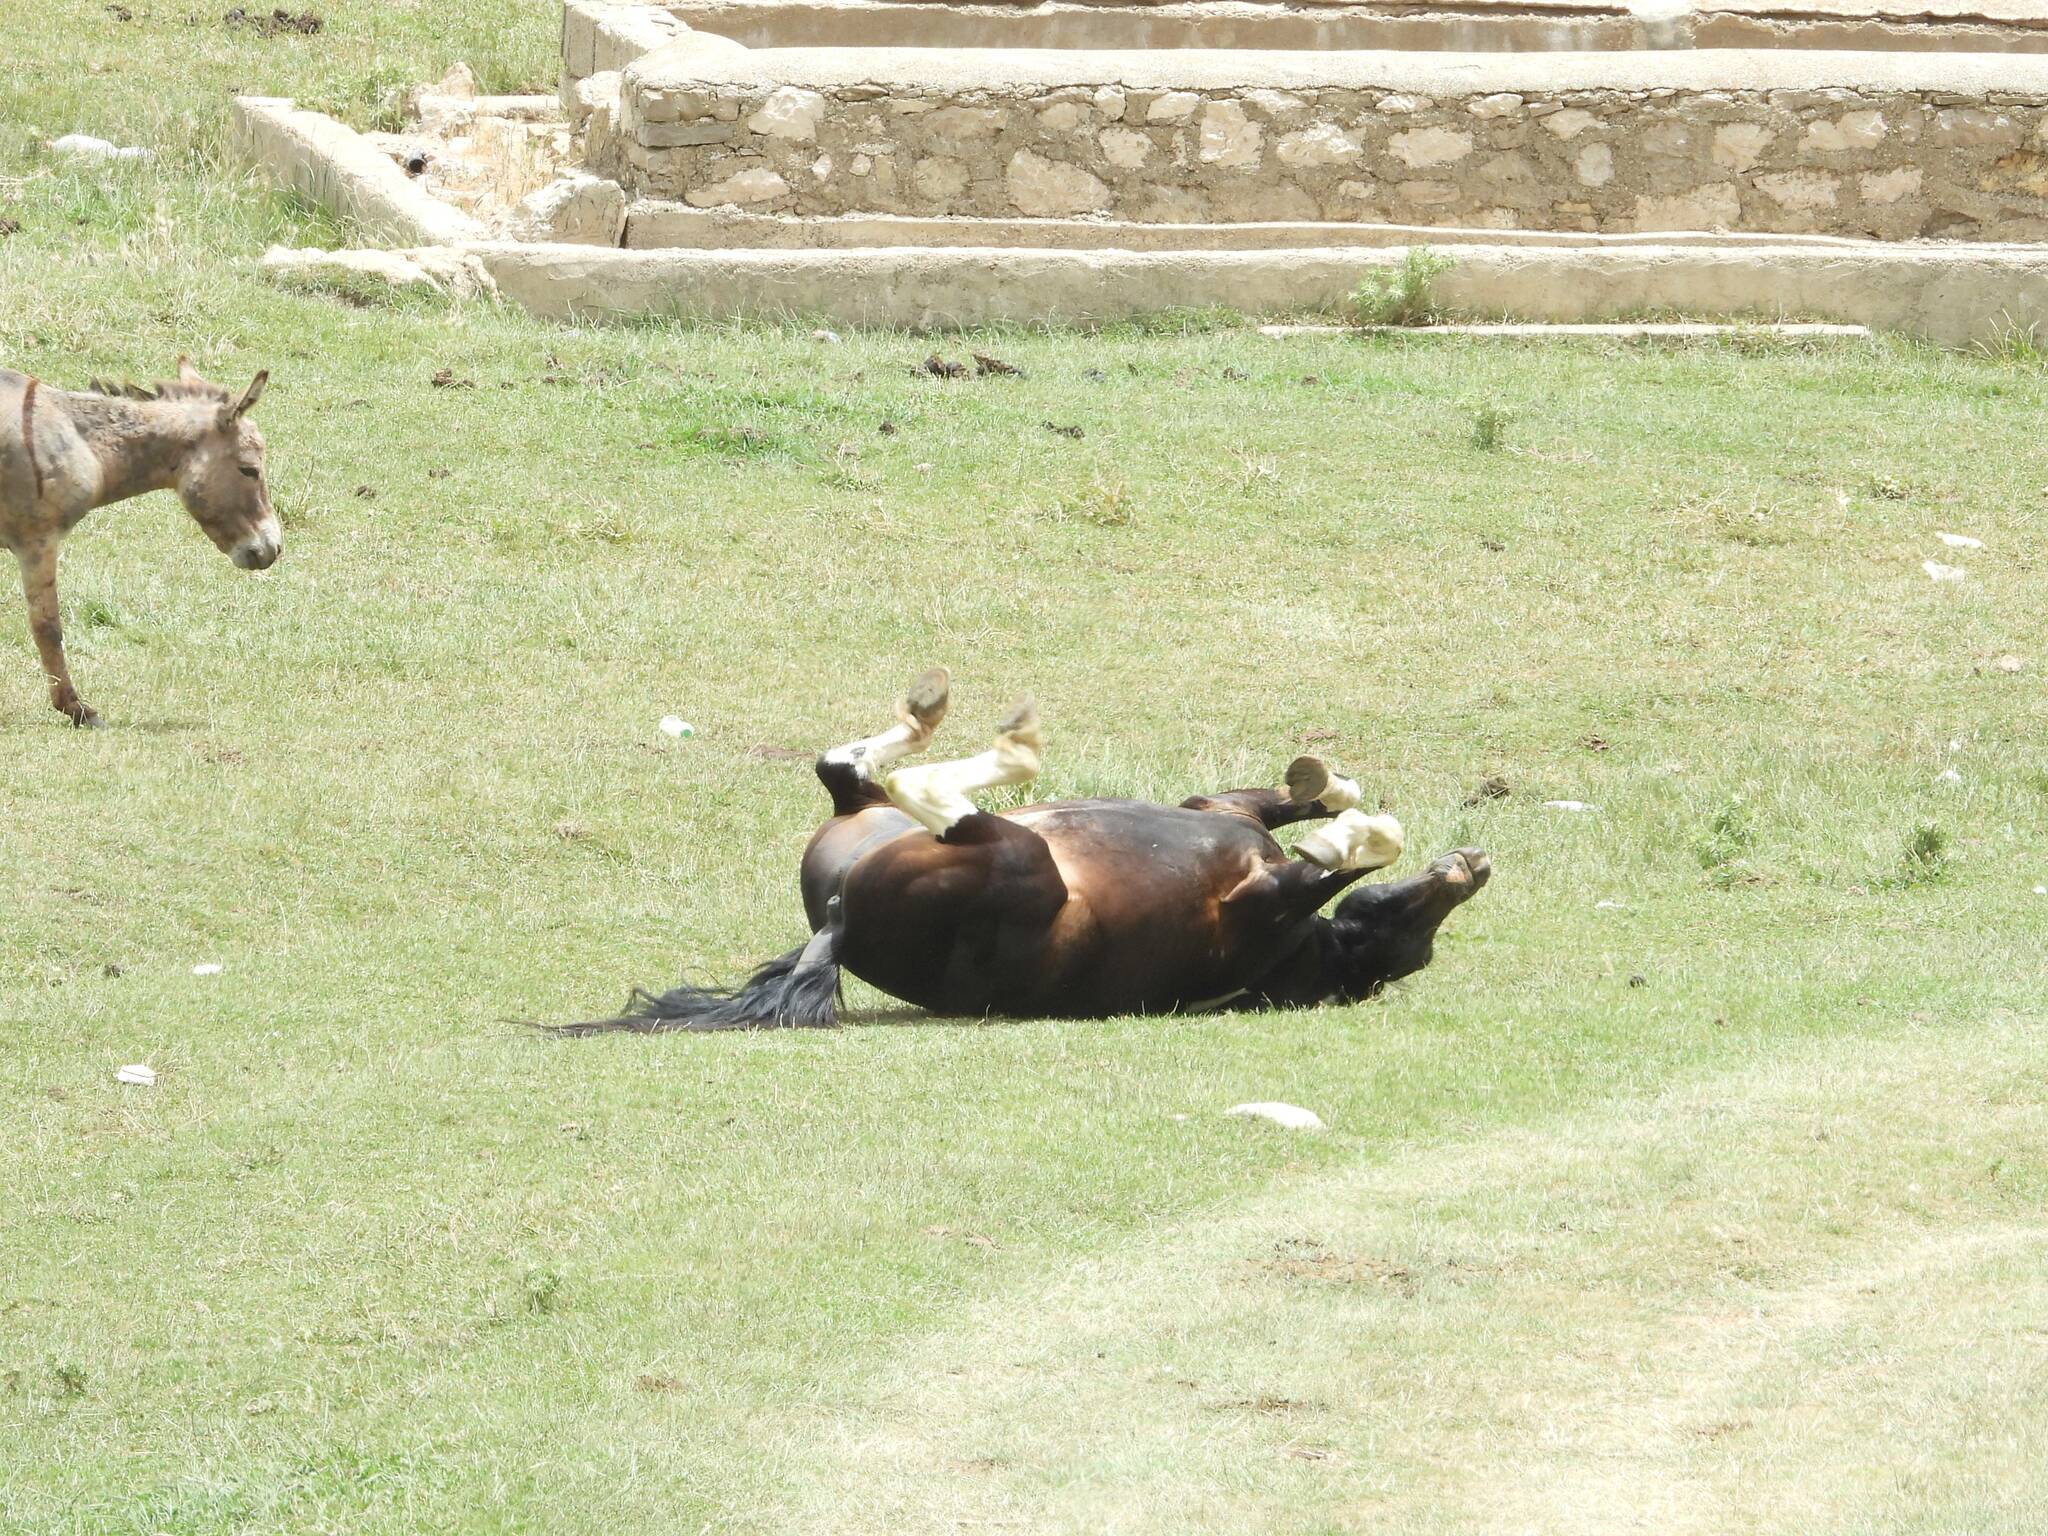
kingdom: Animalia
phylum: Chordata
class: Mammalia
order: Perissodactyla
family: Equidae
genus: Equus
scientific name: Equus caballus
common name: Horse
